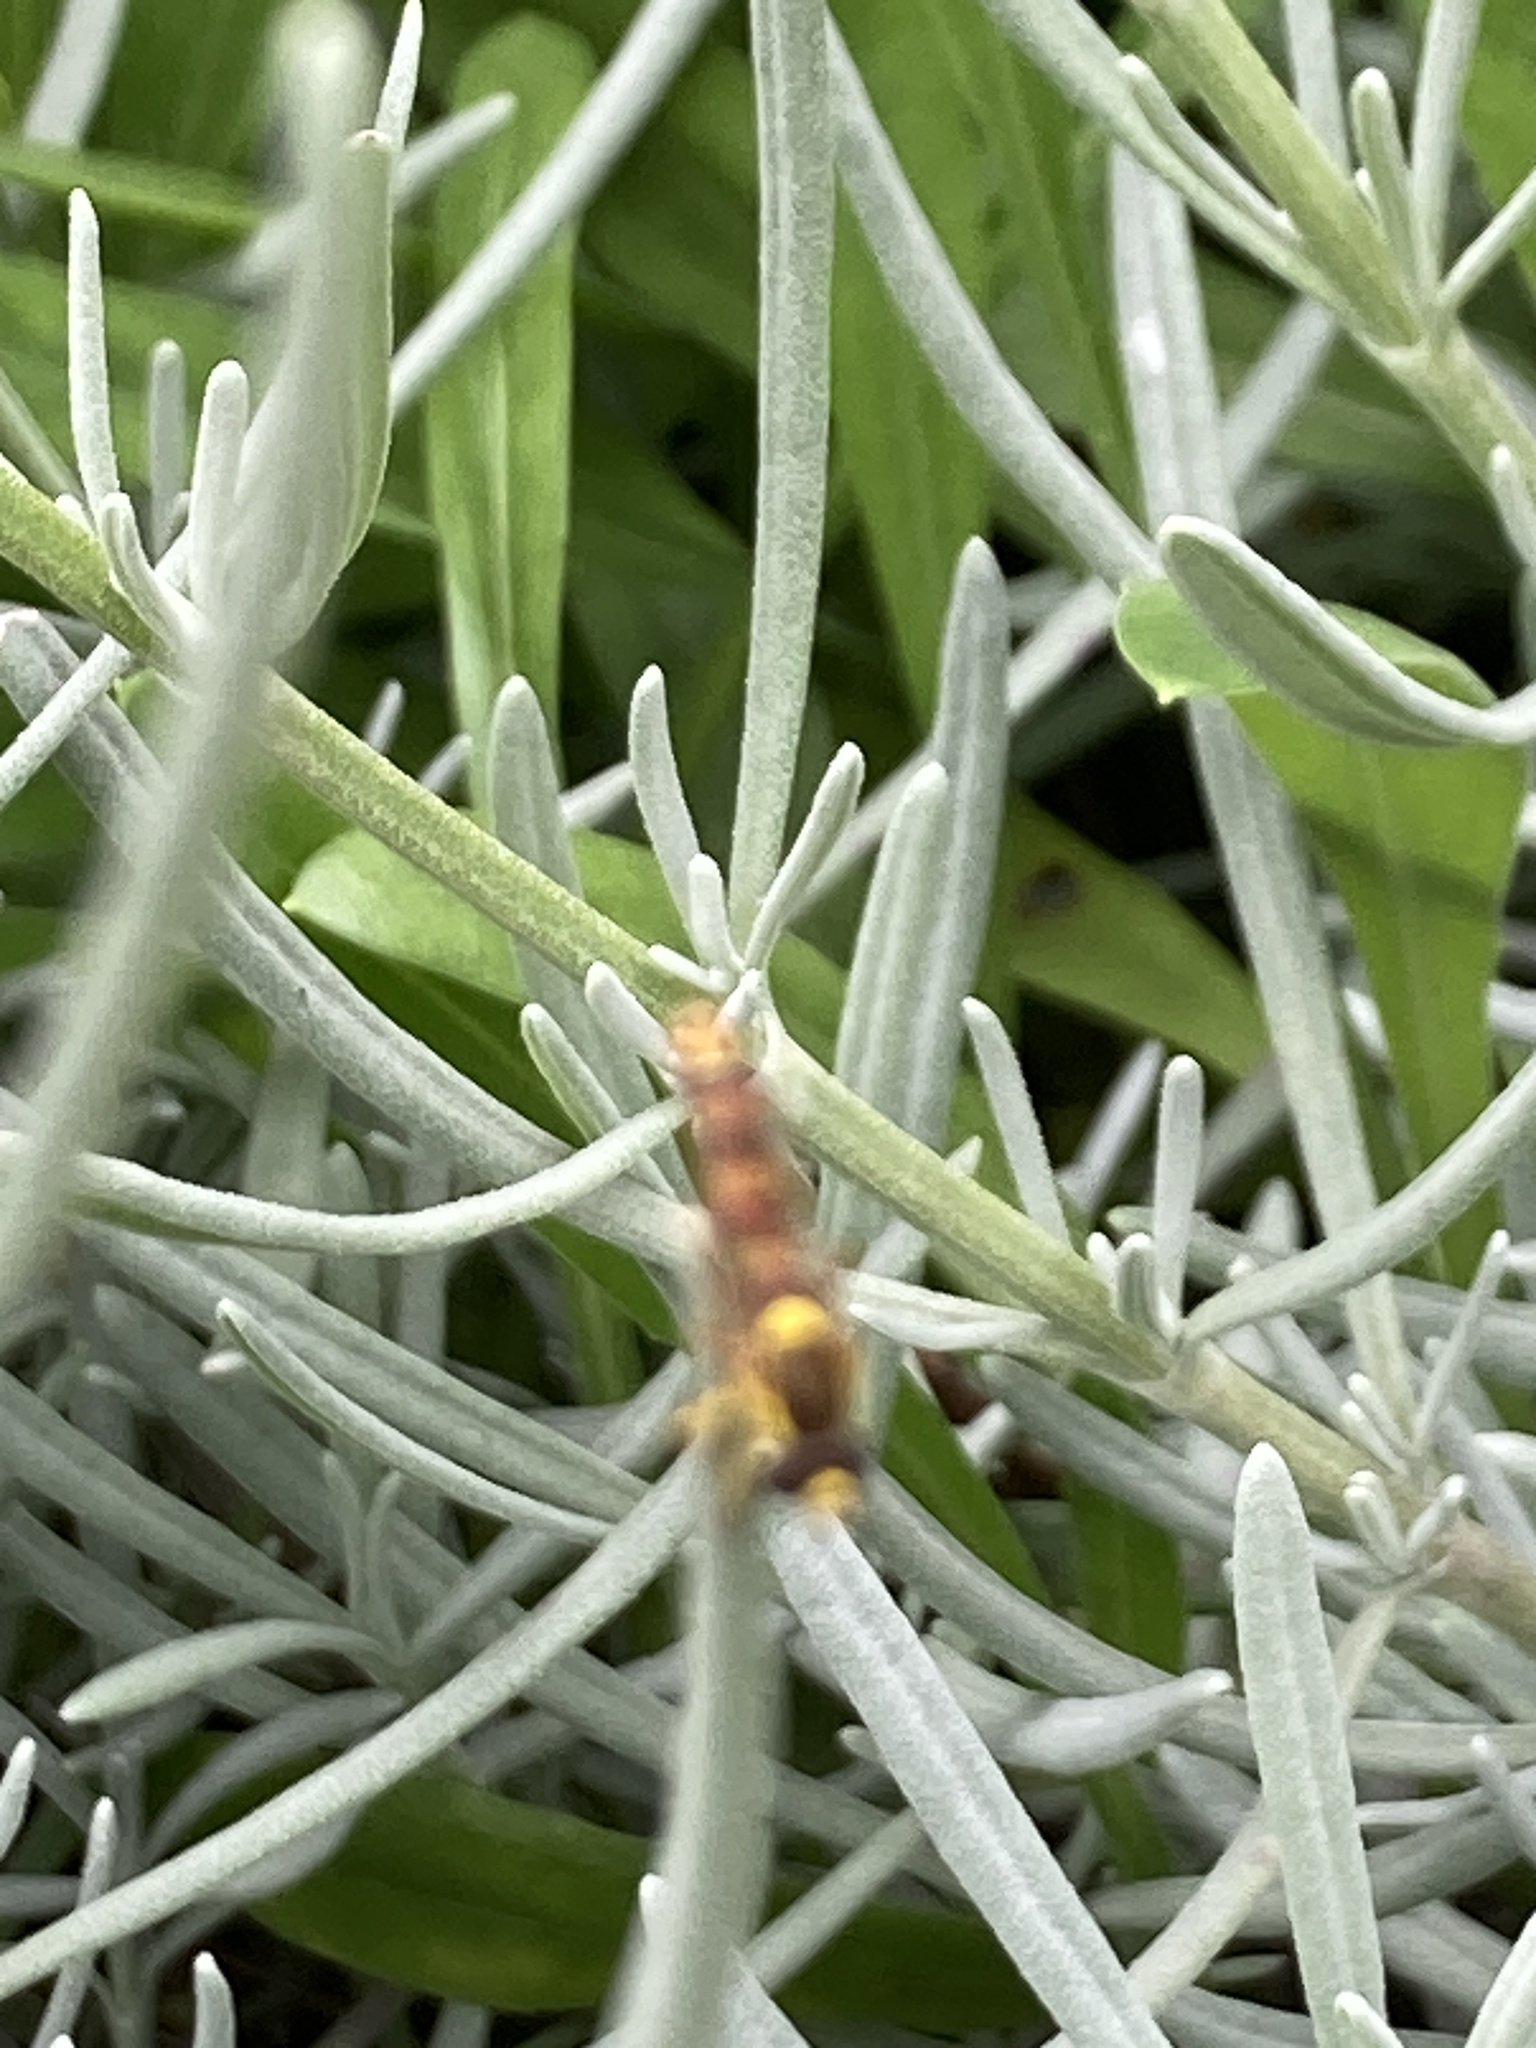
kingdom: Animalia
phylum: Arthropoda
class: Insecta
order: Diptera
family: Syrphidae
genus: Sphaerophoria
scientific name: Sphaerophoria scripta
